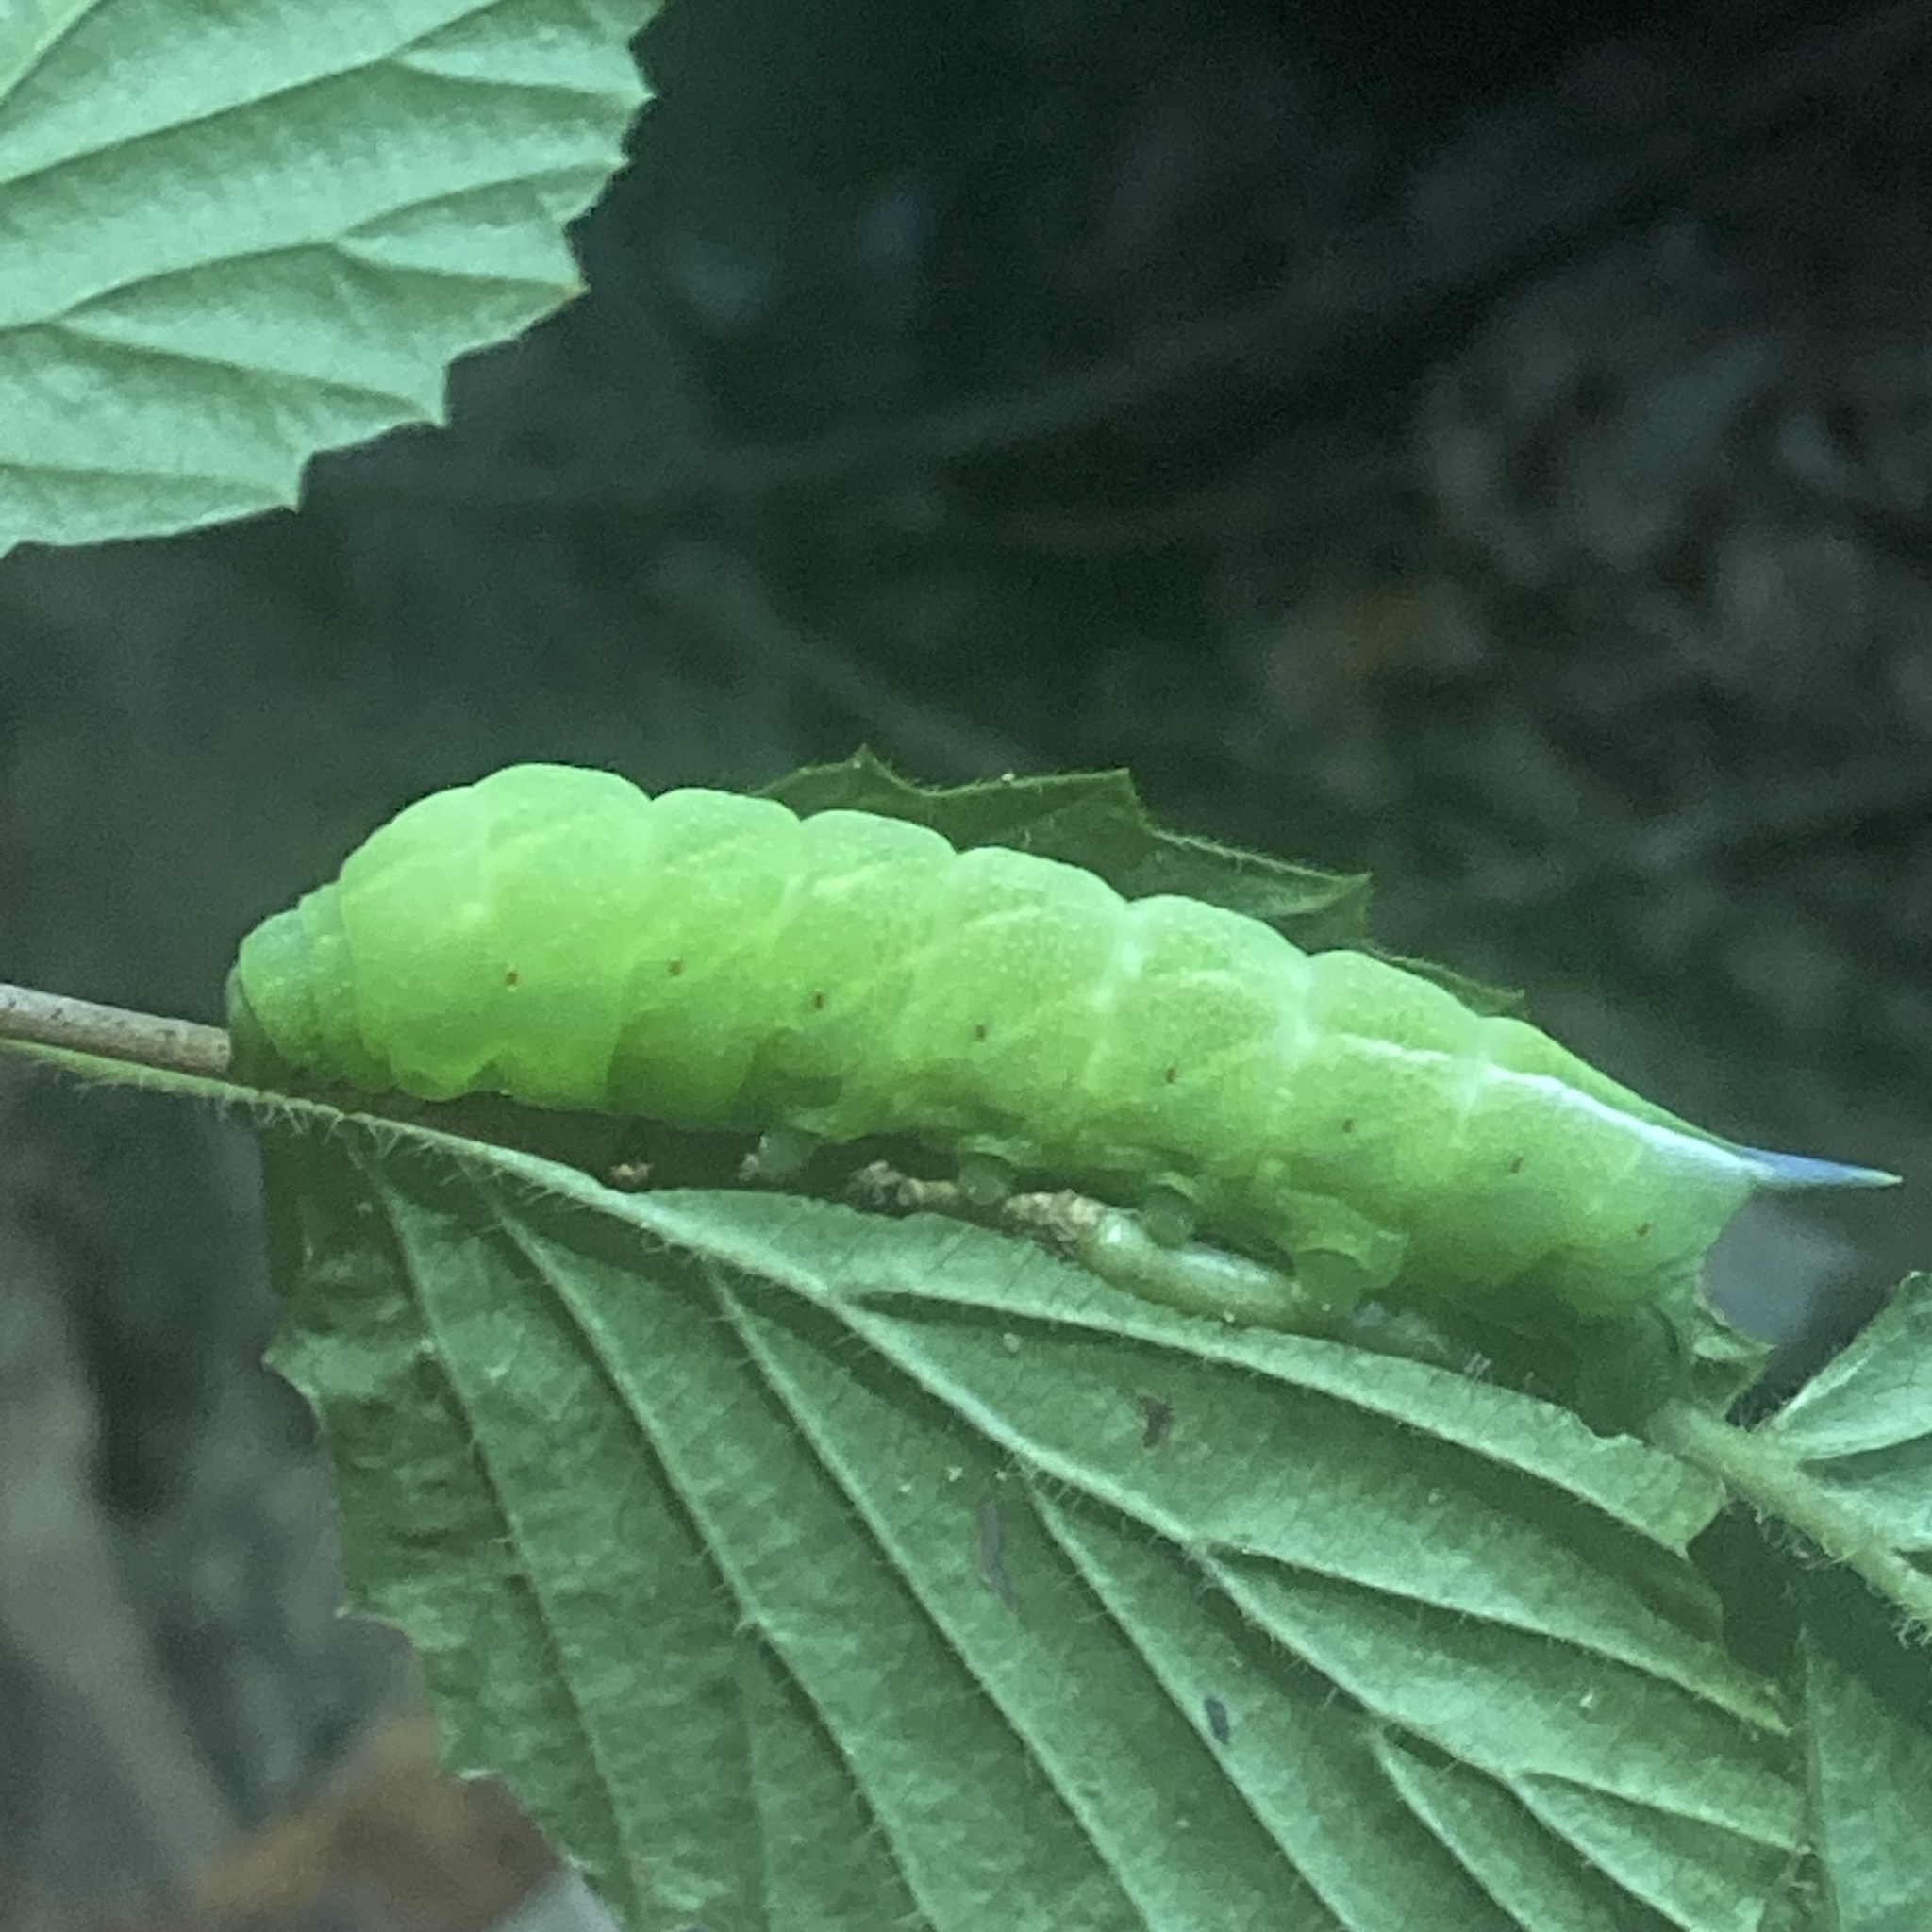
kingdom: Animalia
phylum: Arthropoda
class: Insecta
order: Lepidoptera
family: Sphingidae
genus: Darapsa
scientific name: Darapsa choerilus
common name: Azalea sphinx
